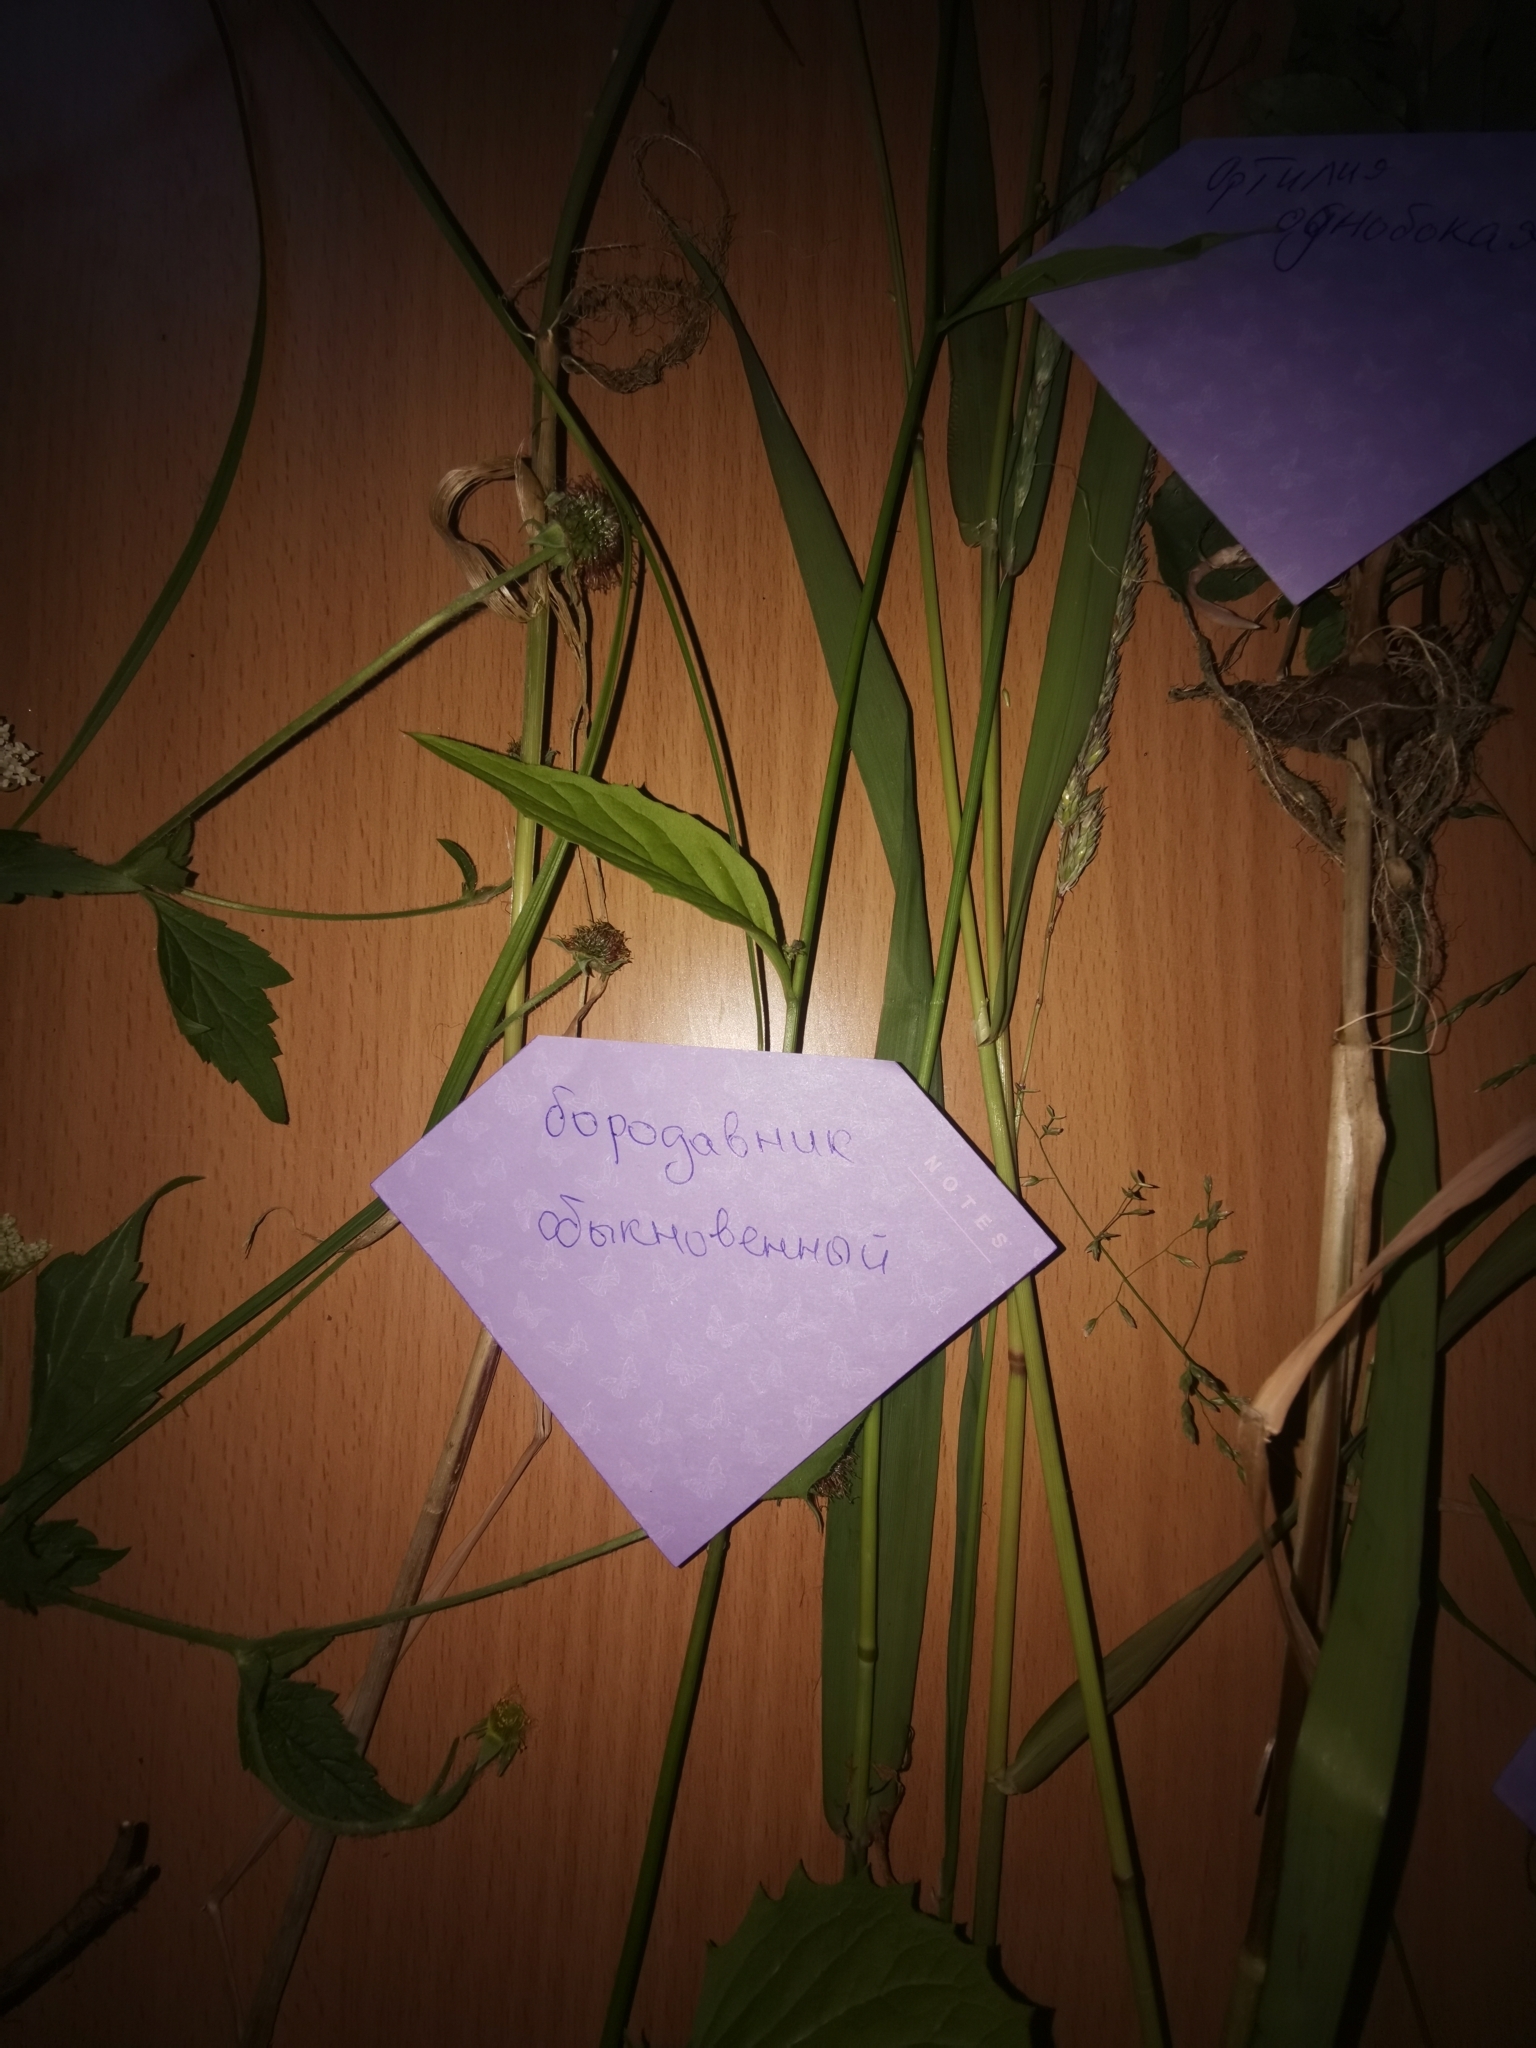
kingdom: Plantae
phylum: Tracheophyta
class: Magnoliopsida
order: Asterales
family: Asteraceae
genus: Lapsana
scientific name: Lapsana communis
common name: Nipplewort
